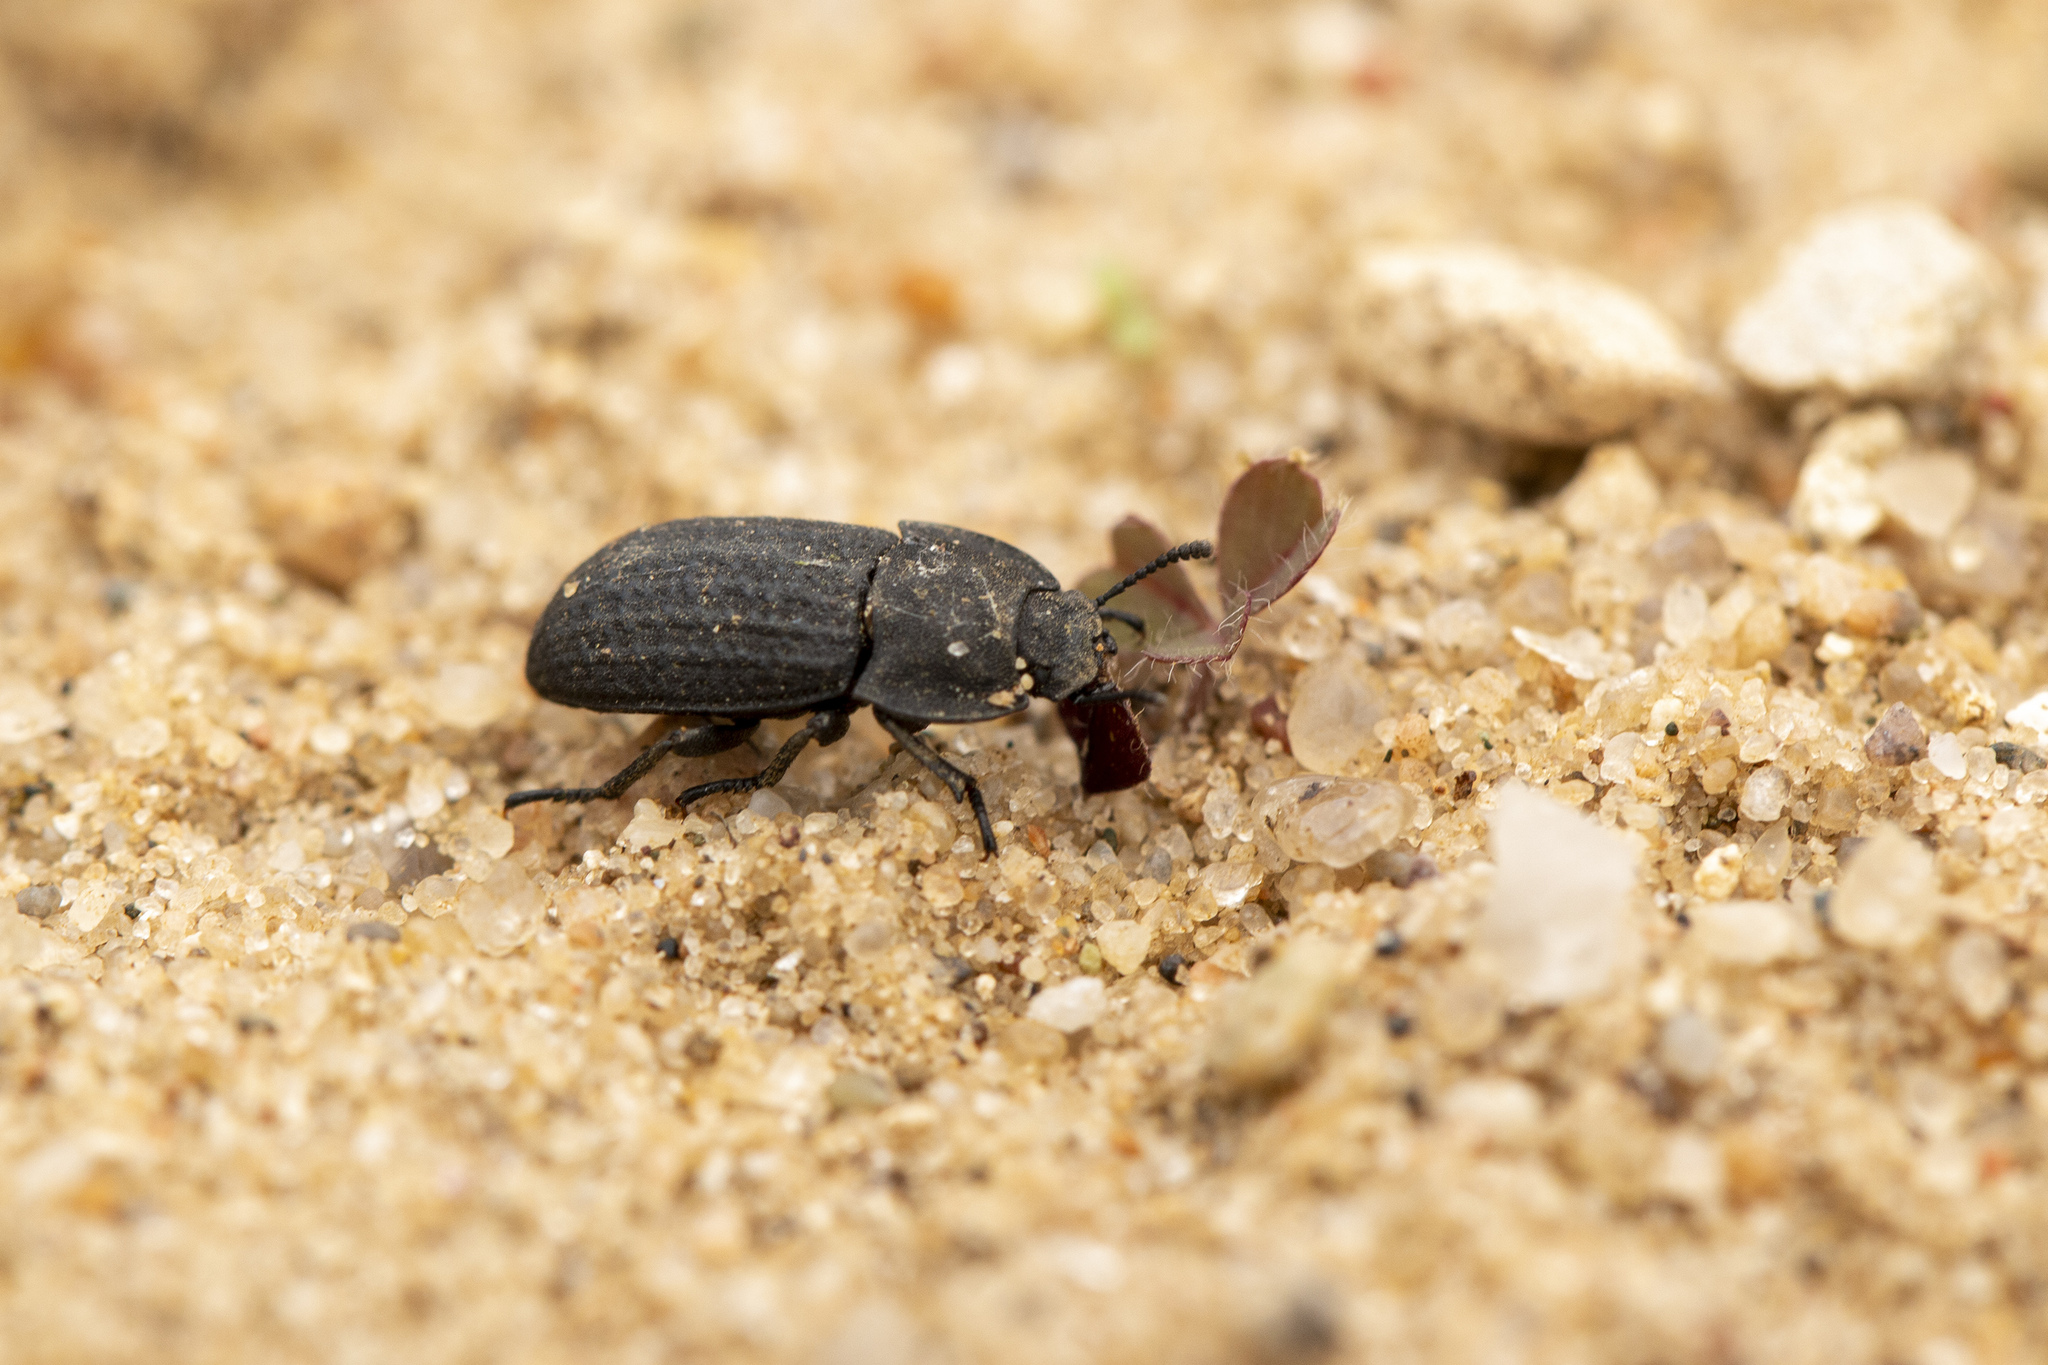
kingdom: Animalia
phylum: Arthropoda
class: Insecta
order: Coleoptera
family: Tenebrionidae
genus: Opatrum
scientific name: Opatrum sabulosum
